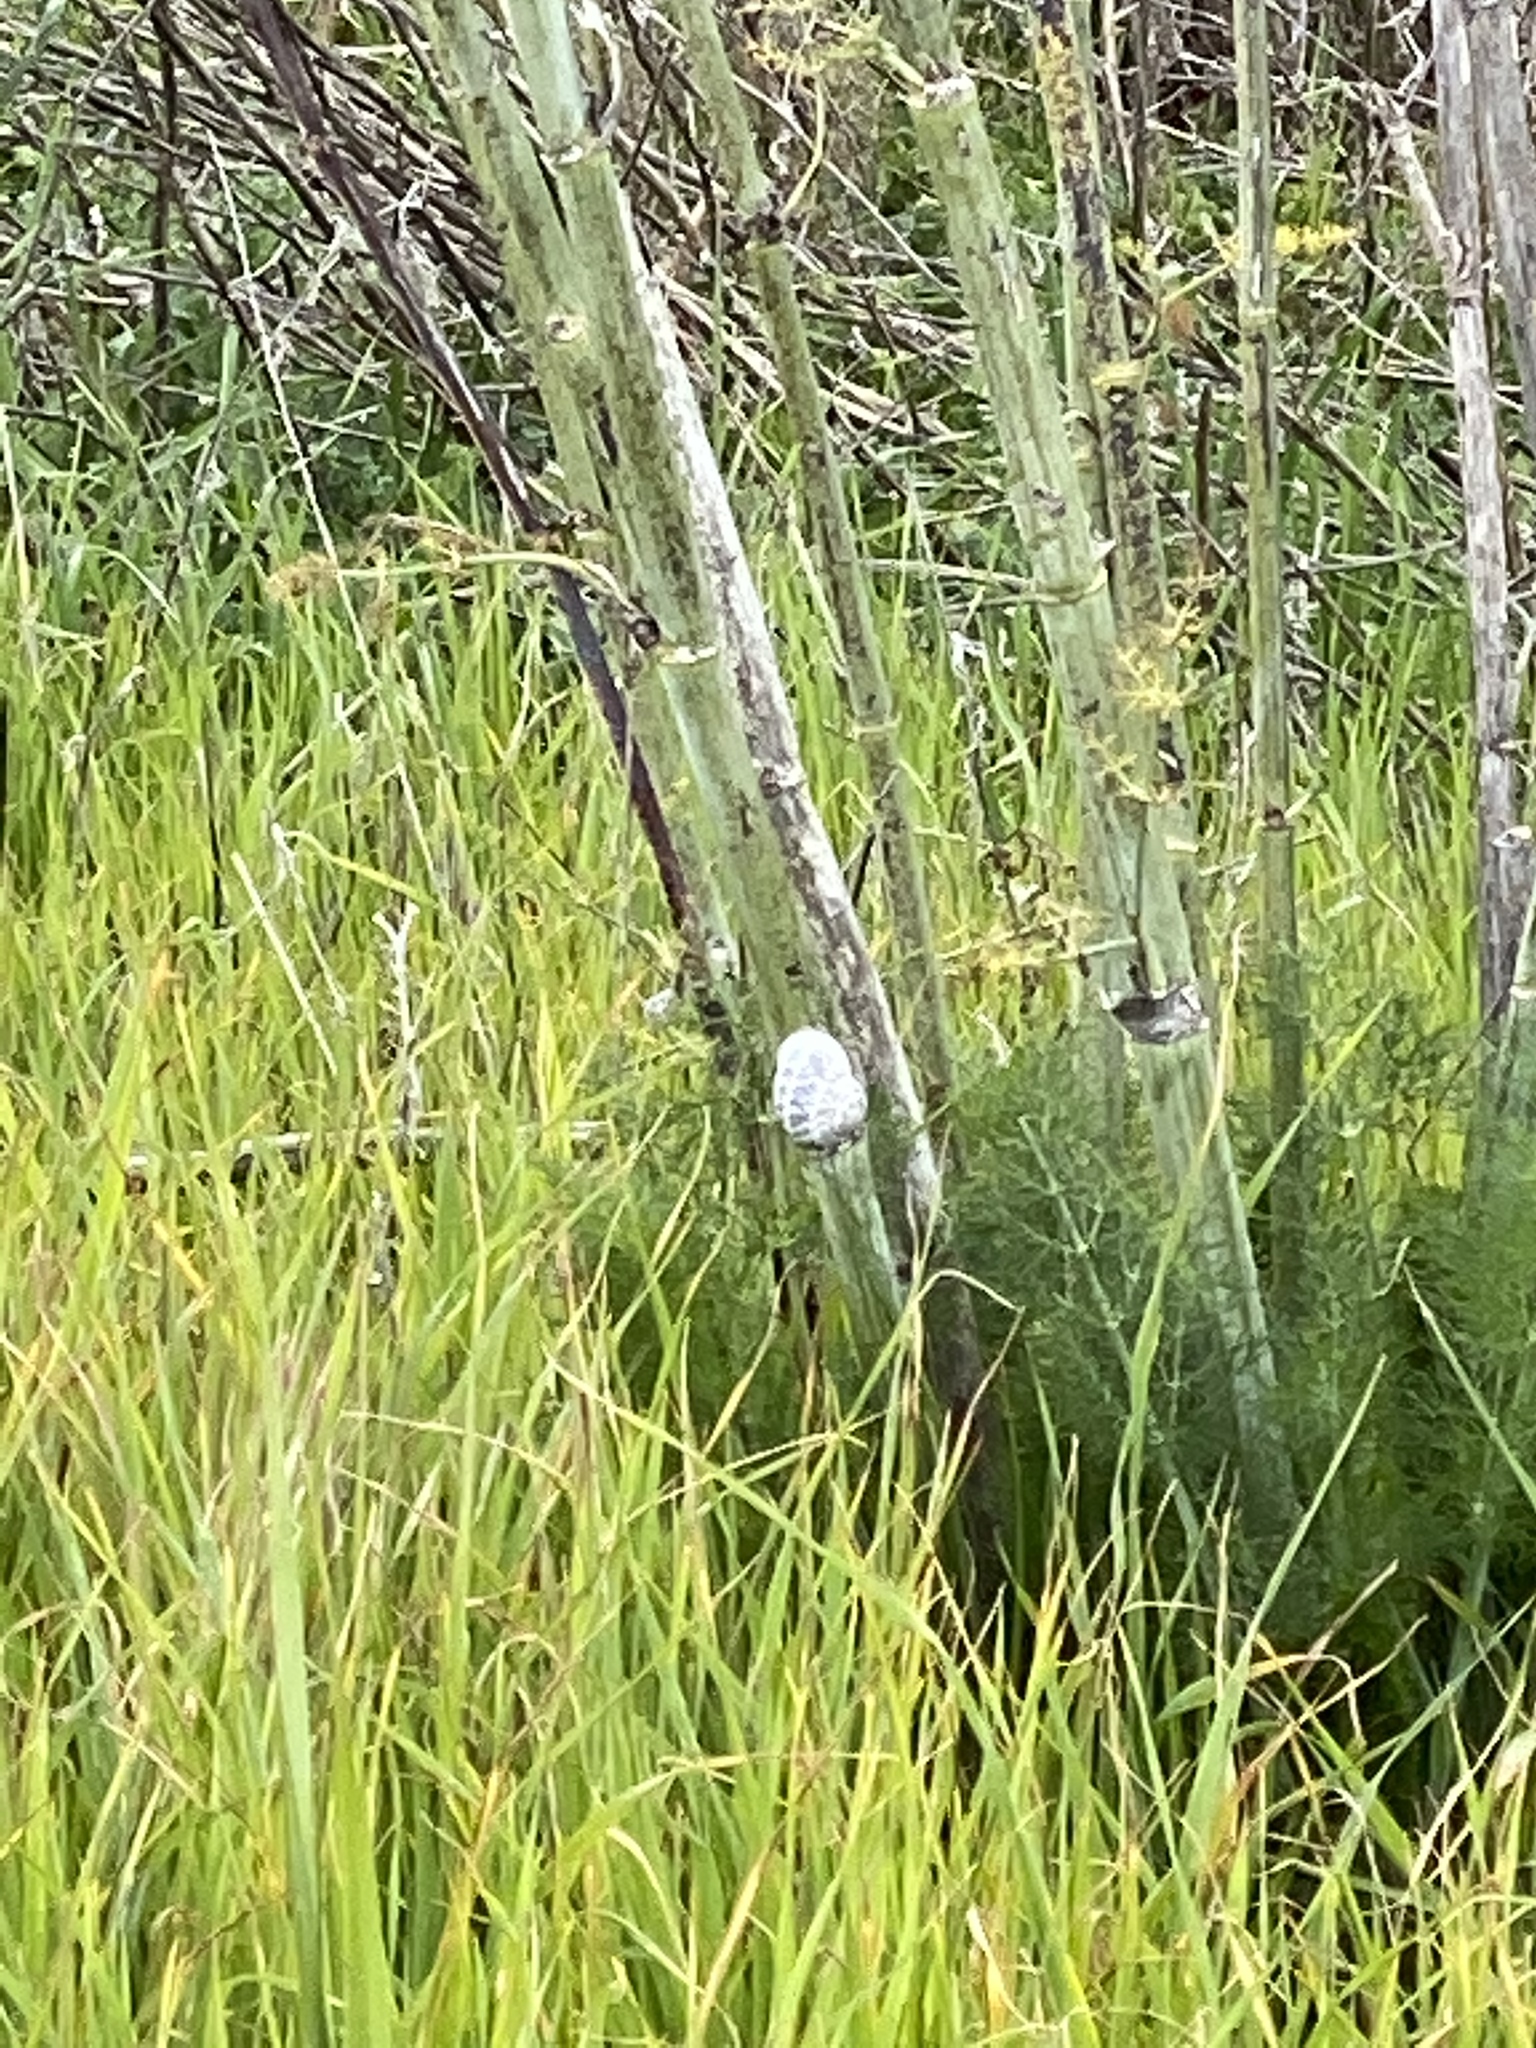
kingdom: Animalia
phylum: Mollusca
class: Gastropoda
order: Stylommatophora
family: Helicidae
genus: Cornu
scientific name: Cornu aspersum
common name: Brown garden snail
